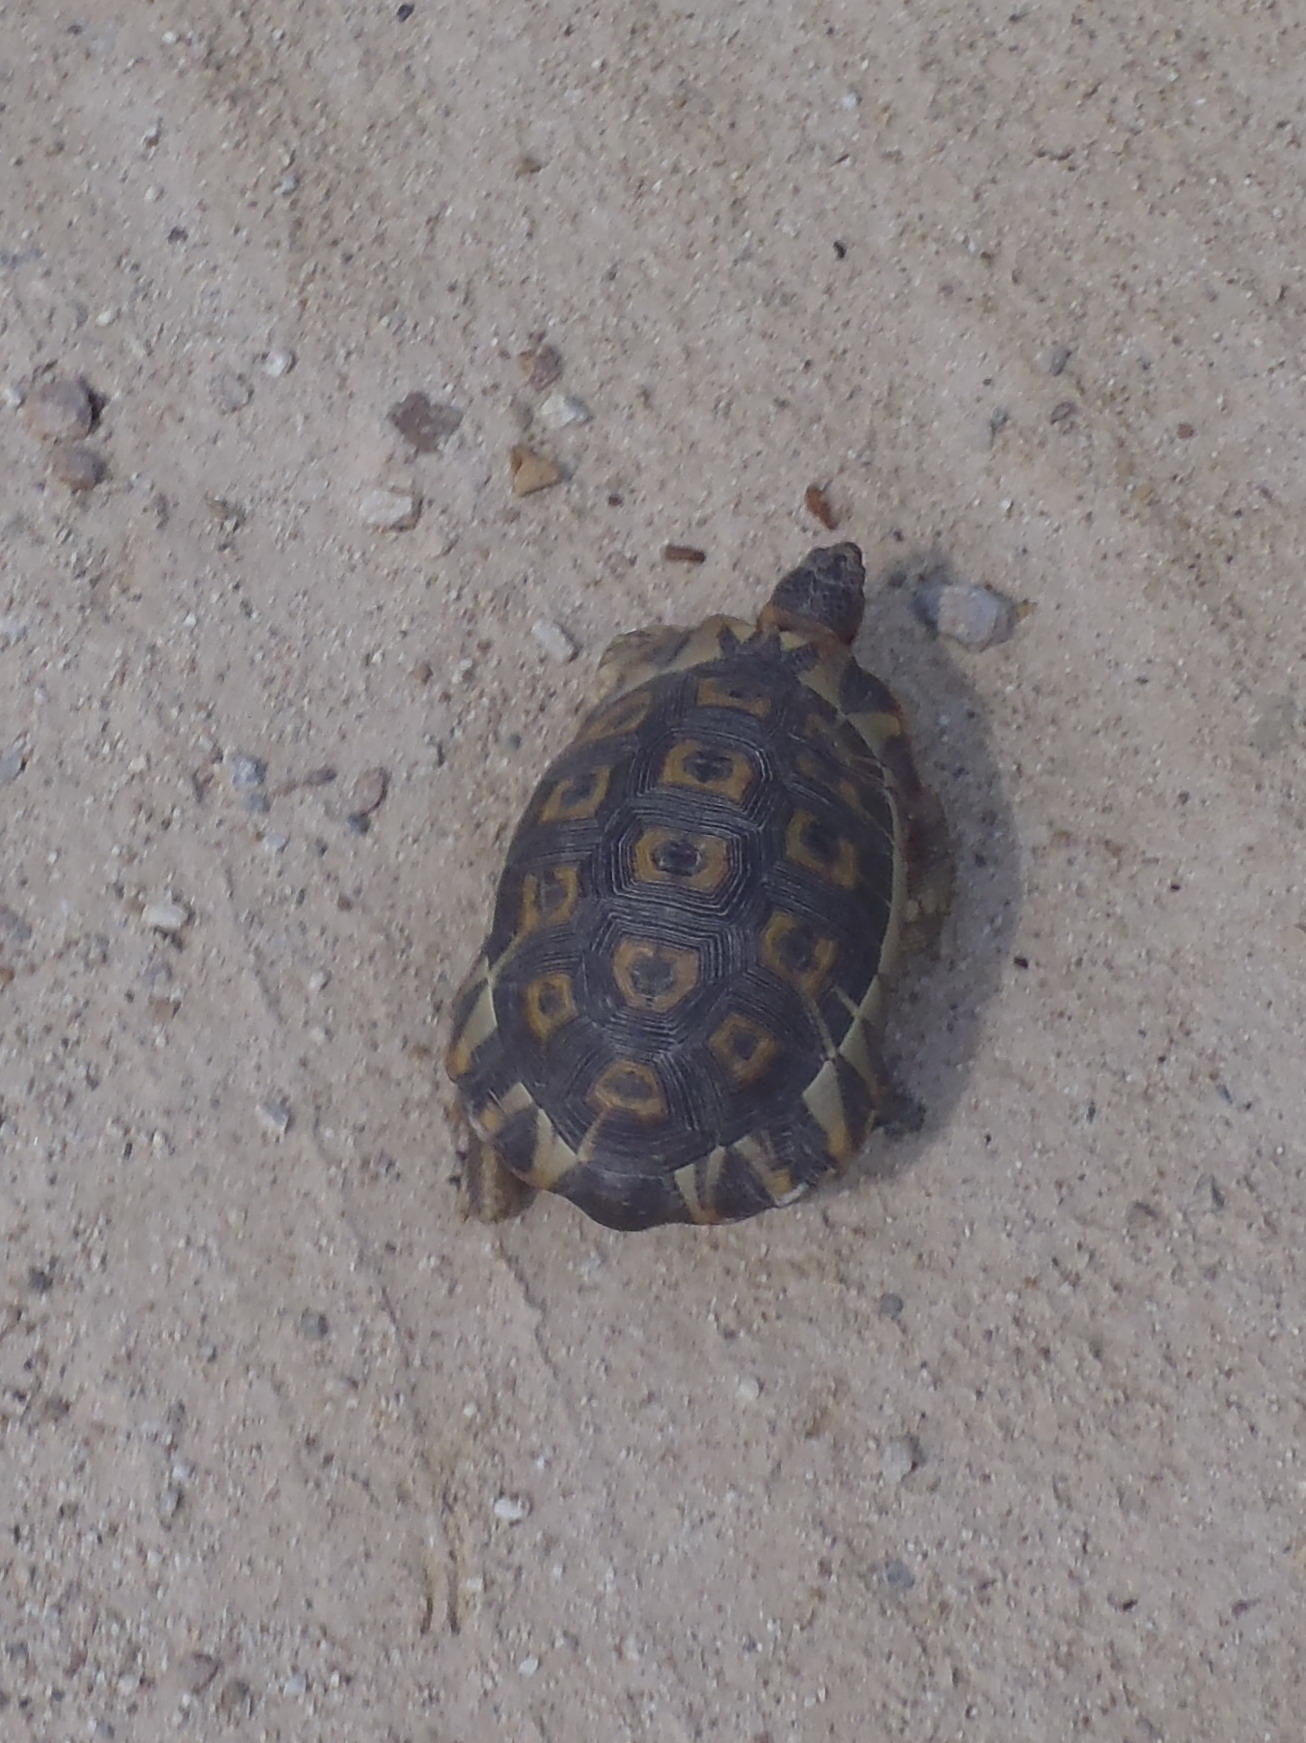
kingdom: Animalia
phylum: Chordata
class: Testudines
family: Testudinidae
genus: Chersina
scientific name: Chersina angulata
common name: South african bowsprit tortoise
